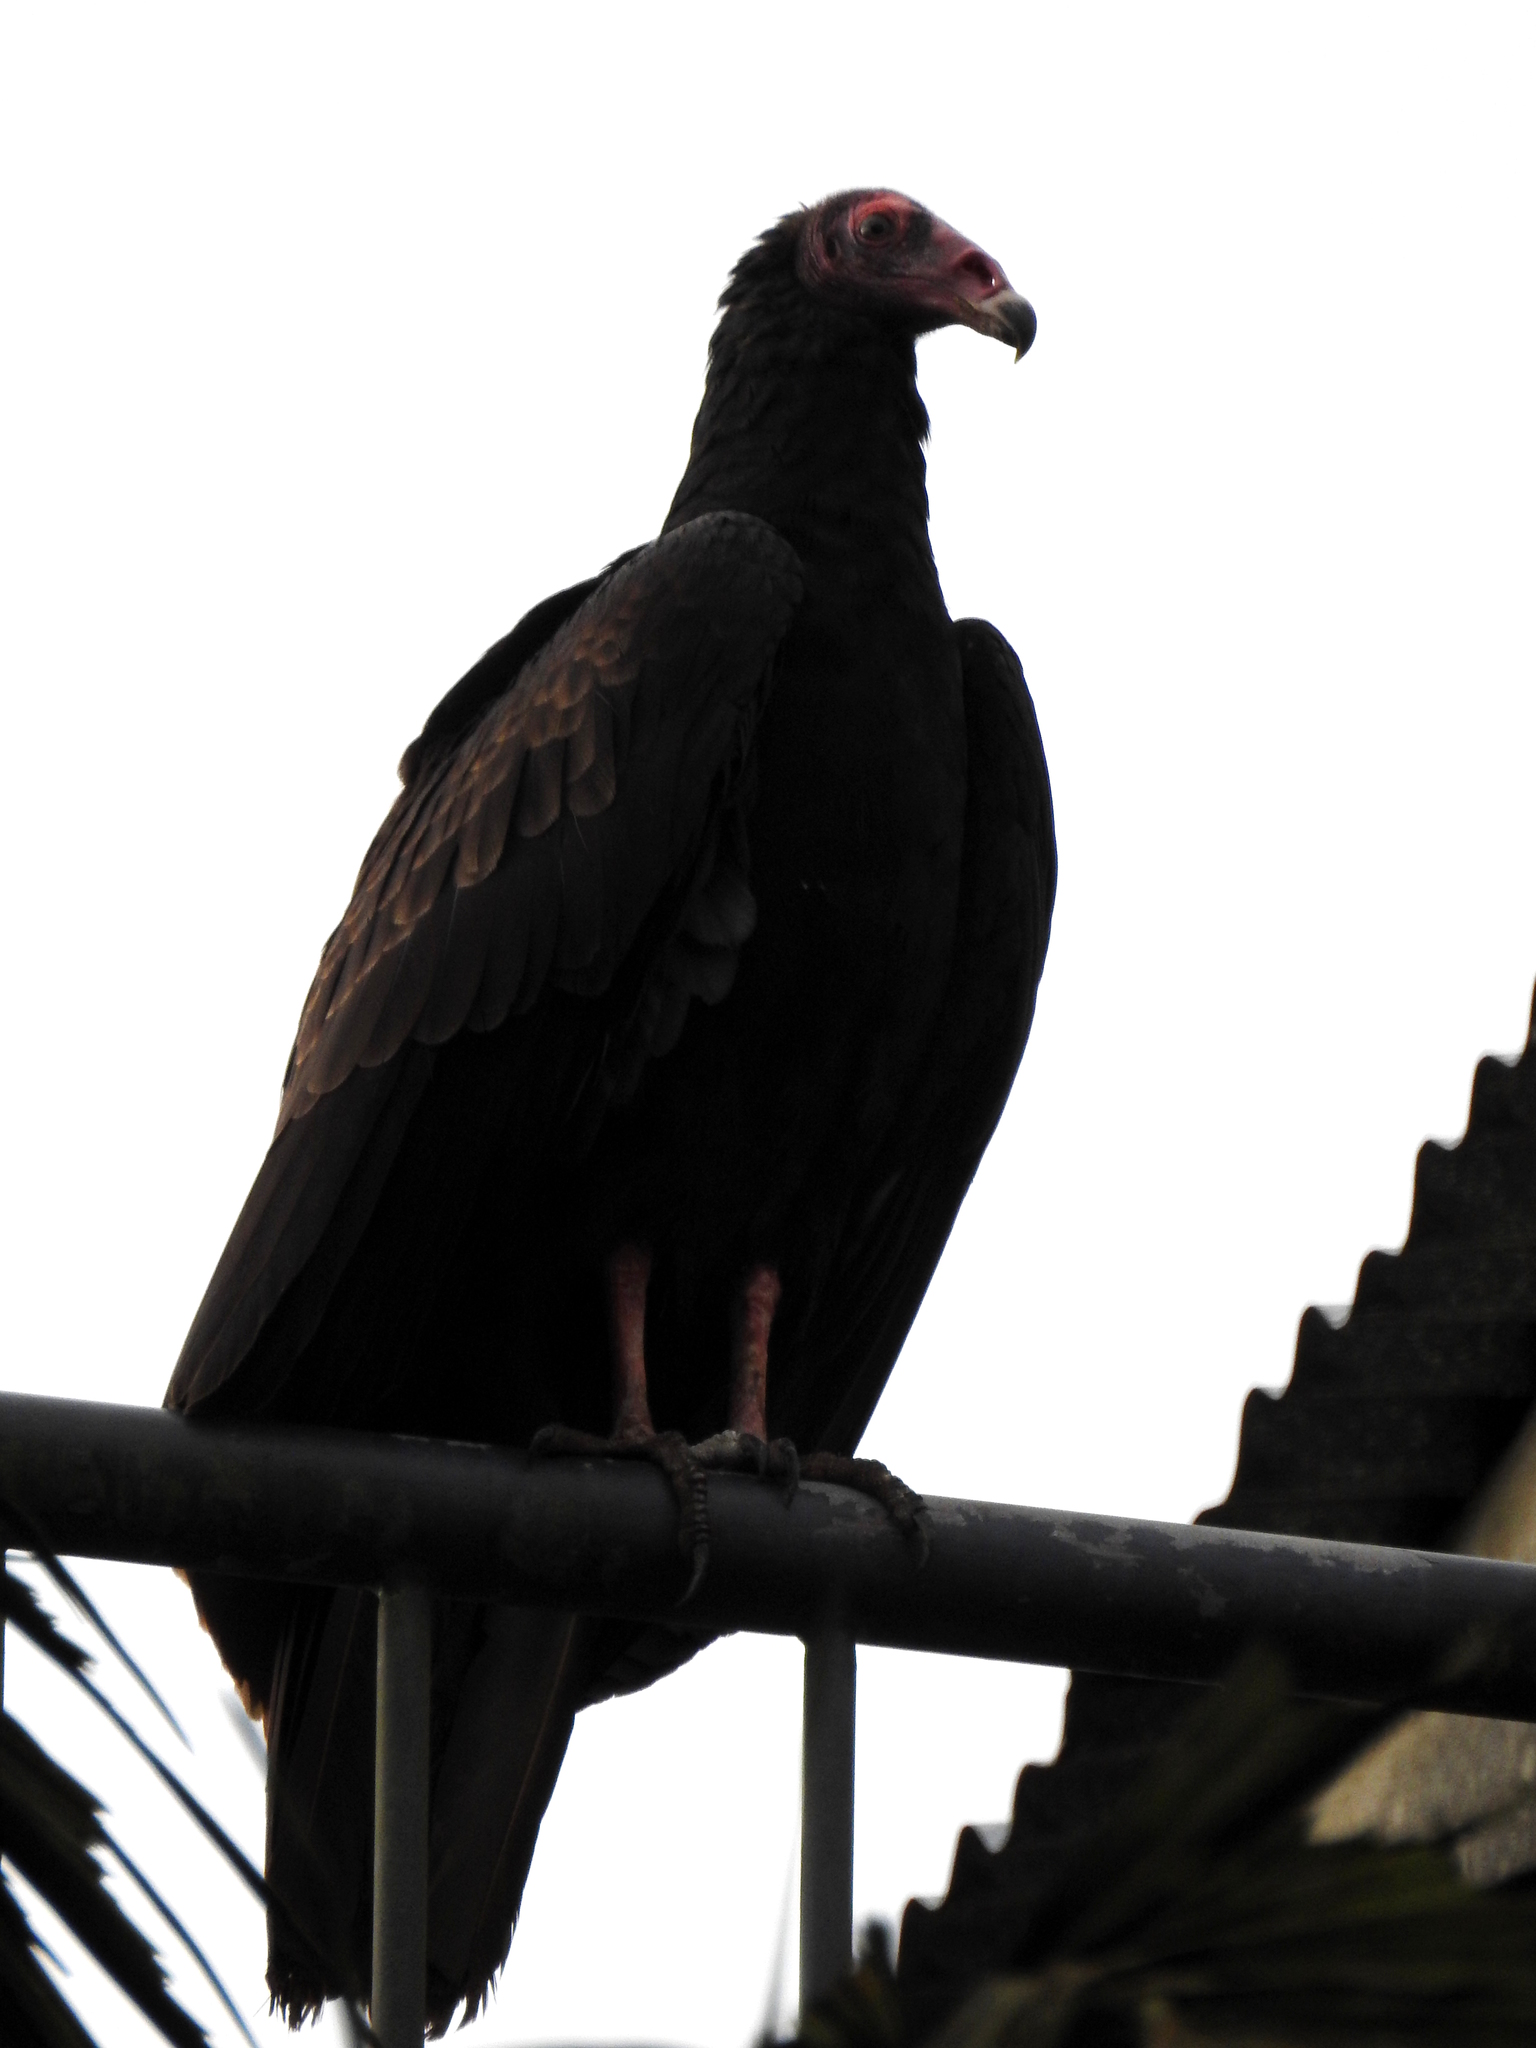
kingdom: Animalia
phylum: Chordata
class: Aves
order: Accipitriformes
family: Cathartidae
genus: Cathartes
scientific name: Cathartes aura
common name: Turkey vulture
